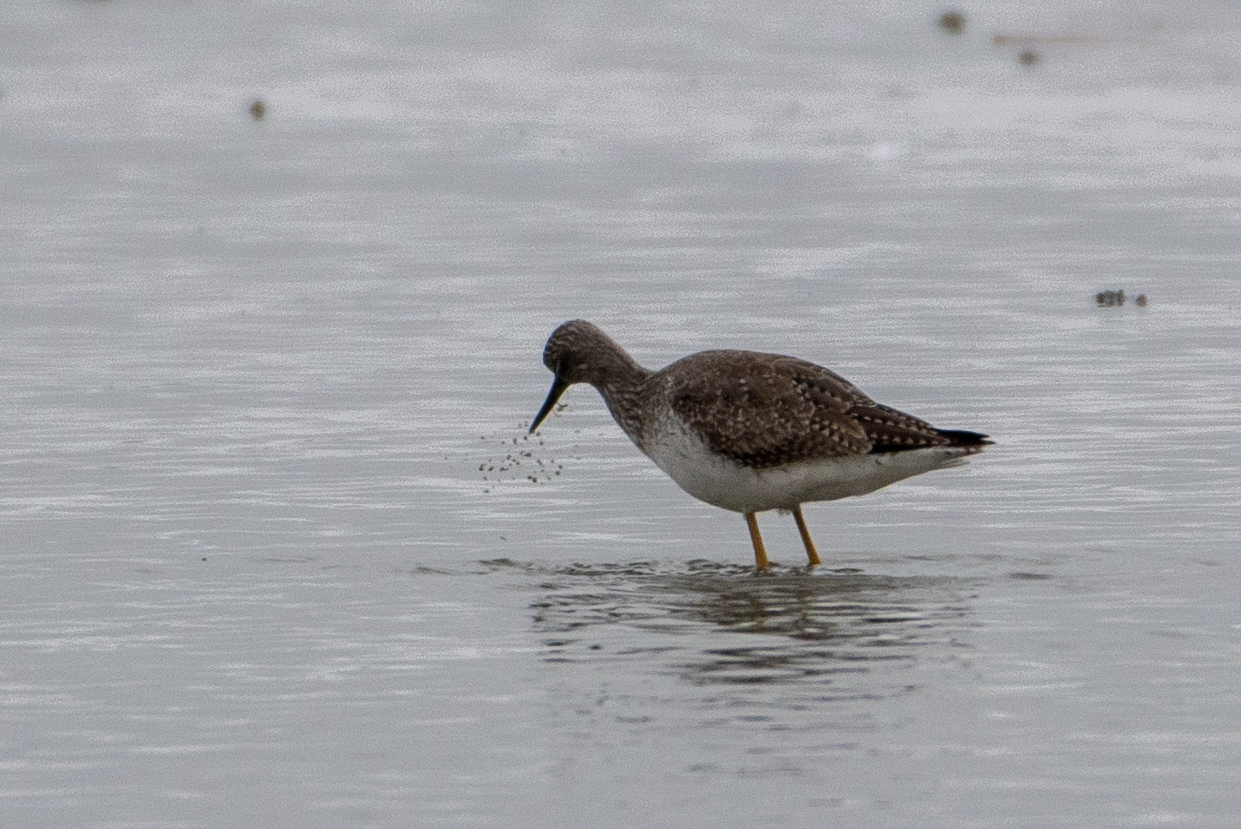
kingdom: Animalia
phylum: Chordata
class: Aves
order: Charadriiformes
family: Scolopacidae
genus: Tringa
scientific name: Tringa melanoleuca
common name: Greater yellowlegs
